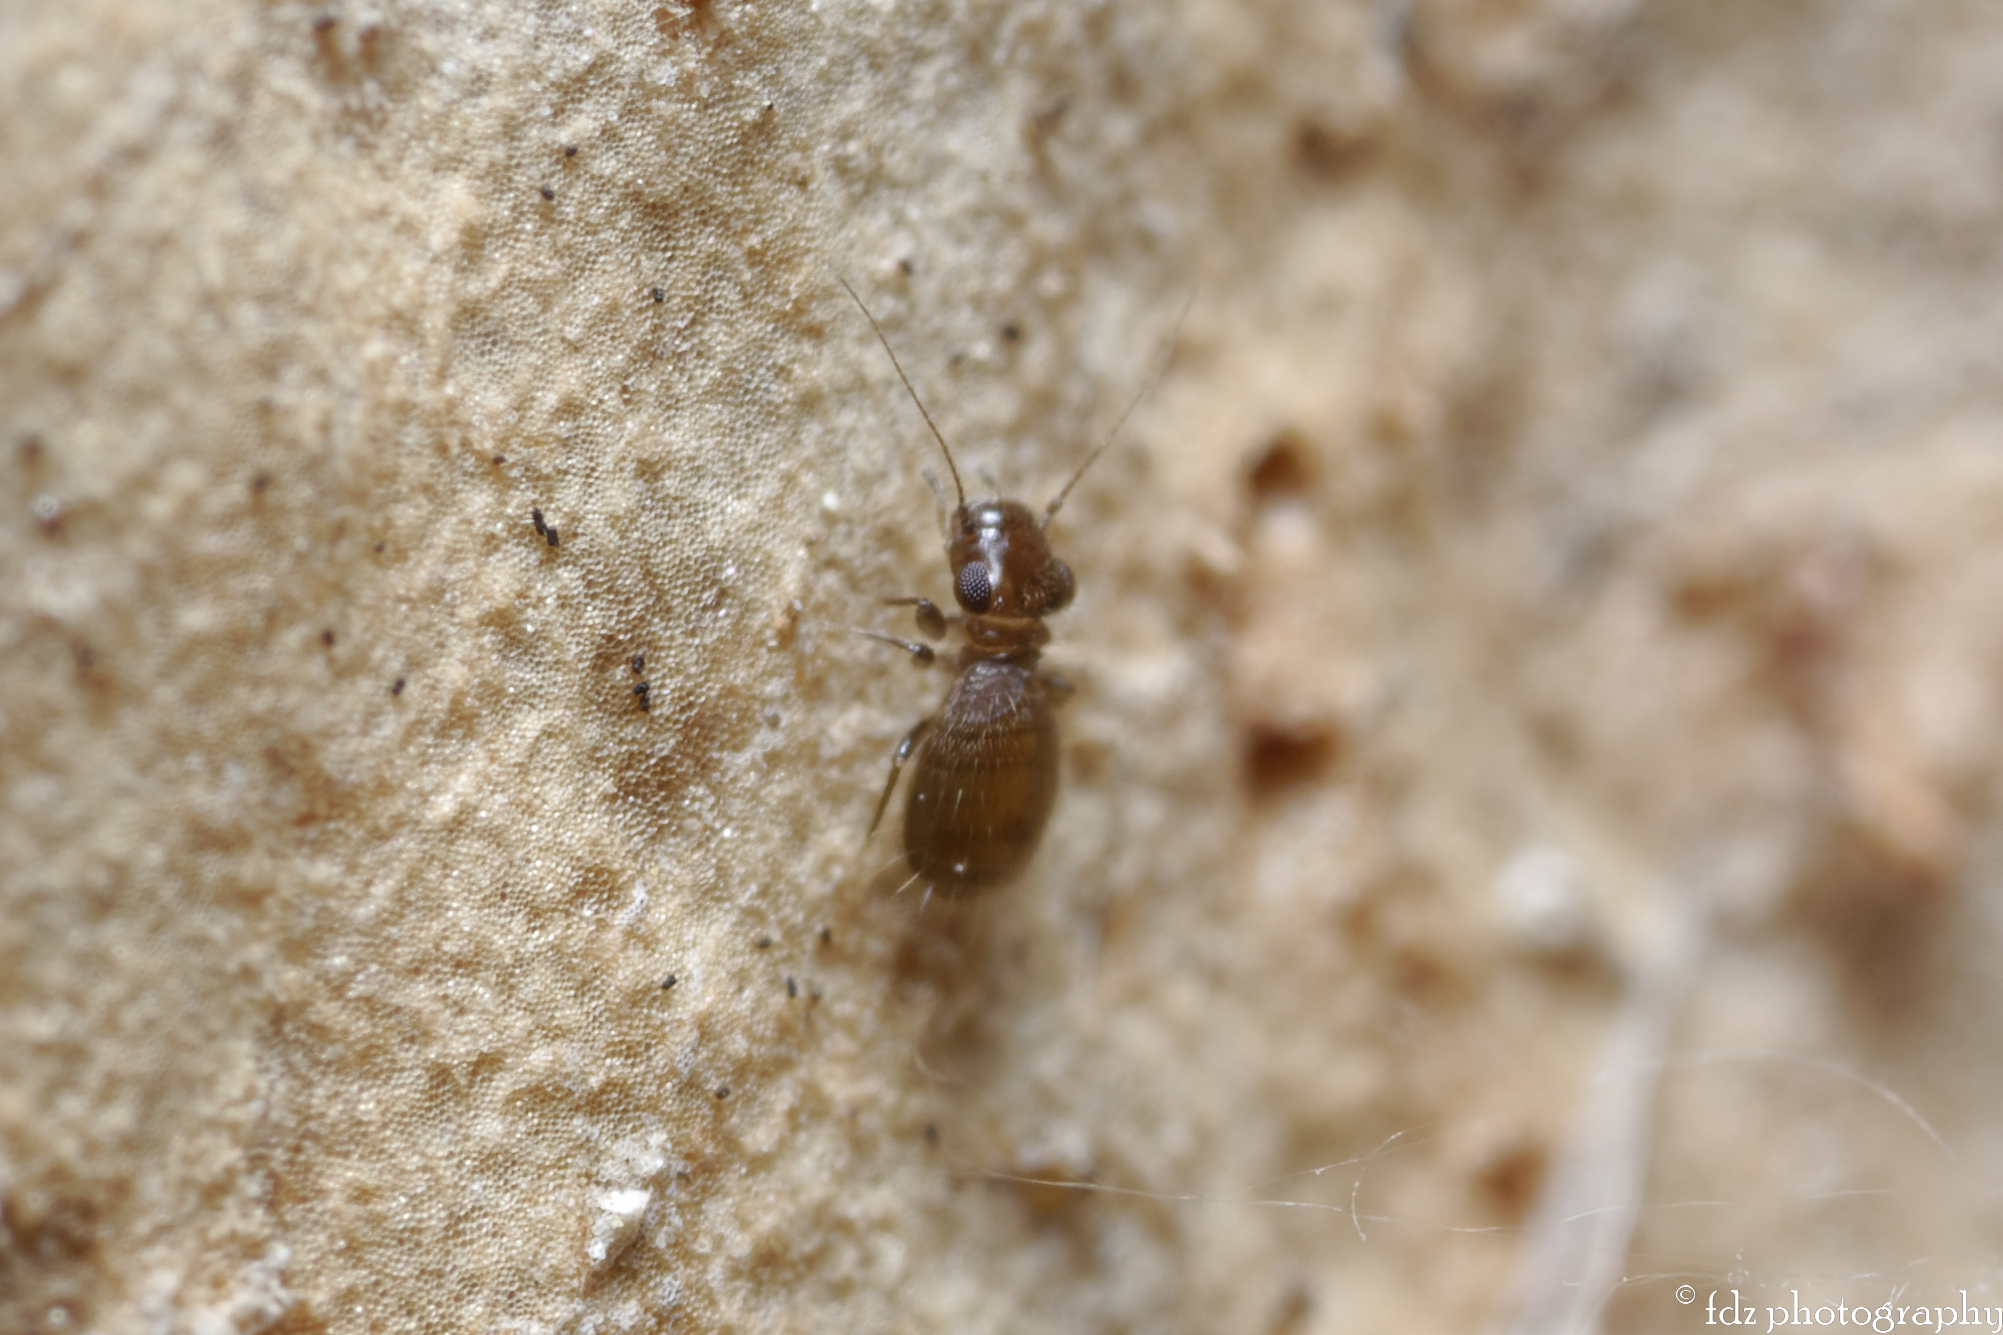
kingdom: Animalia
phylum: Arthropoda
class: Insecta
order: Psocodea
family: Trogiidae
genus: Lepinotus
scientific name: Lepinotus reticulatus
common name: Book lice
